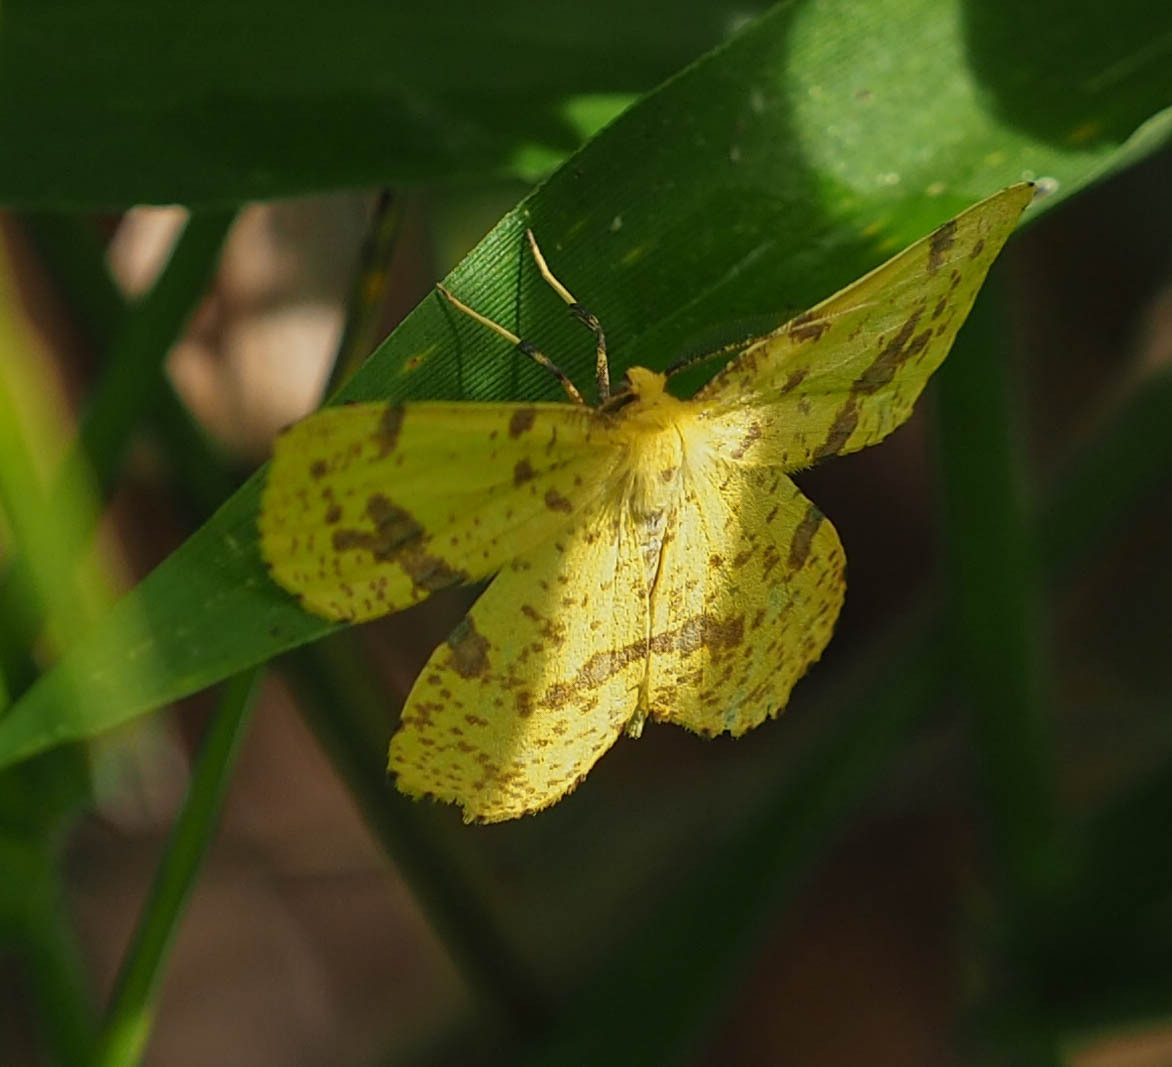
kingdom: Animalia
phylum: Arthropoda
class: Insecta
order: Lepidoptera
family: Geometridae
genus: Xanthotype
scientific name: Xanthotype
